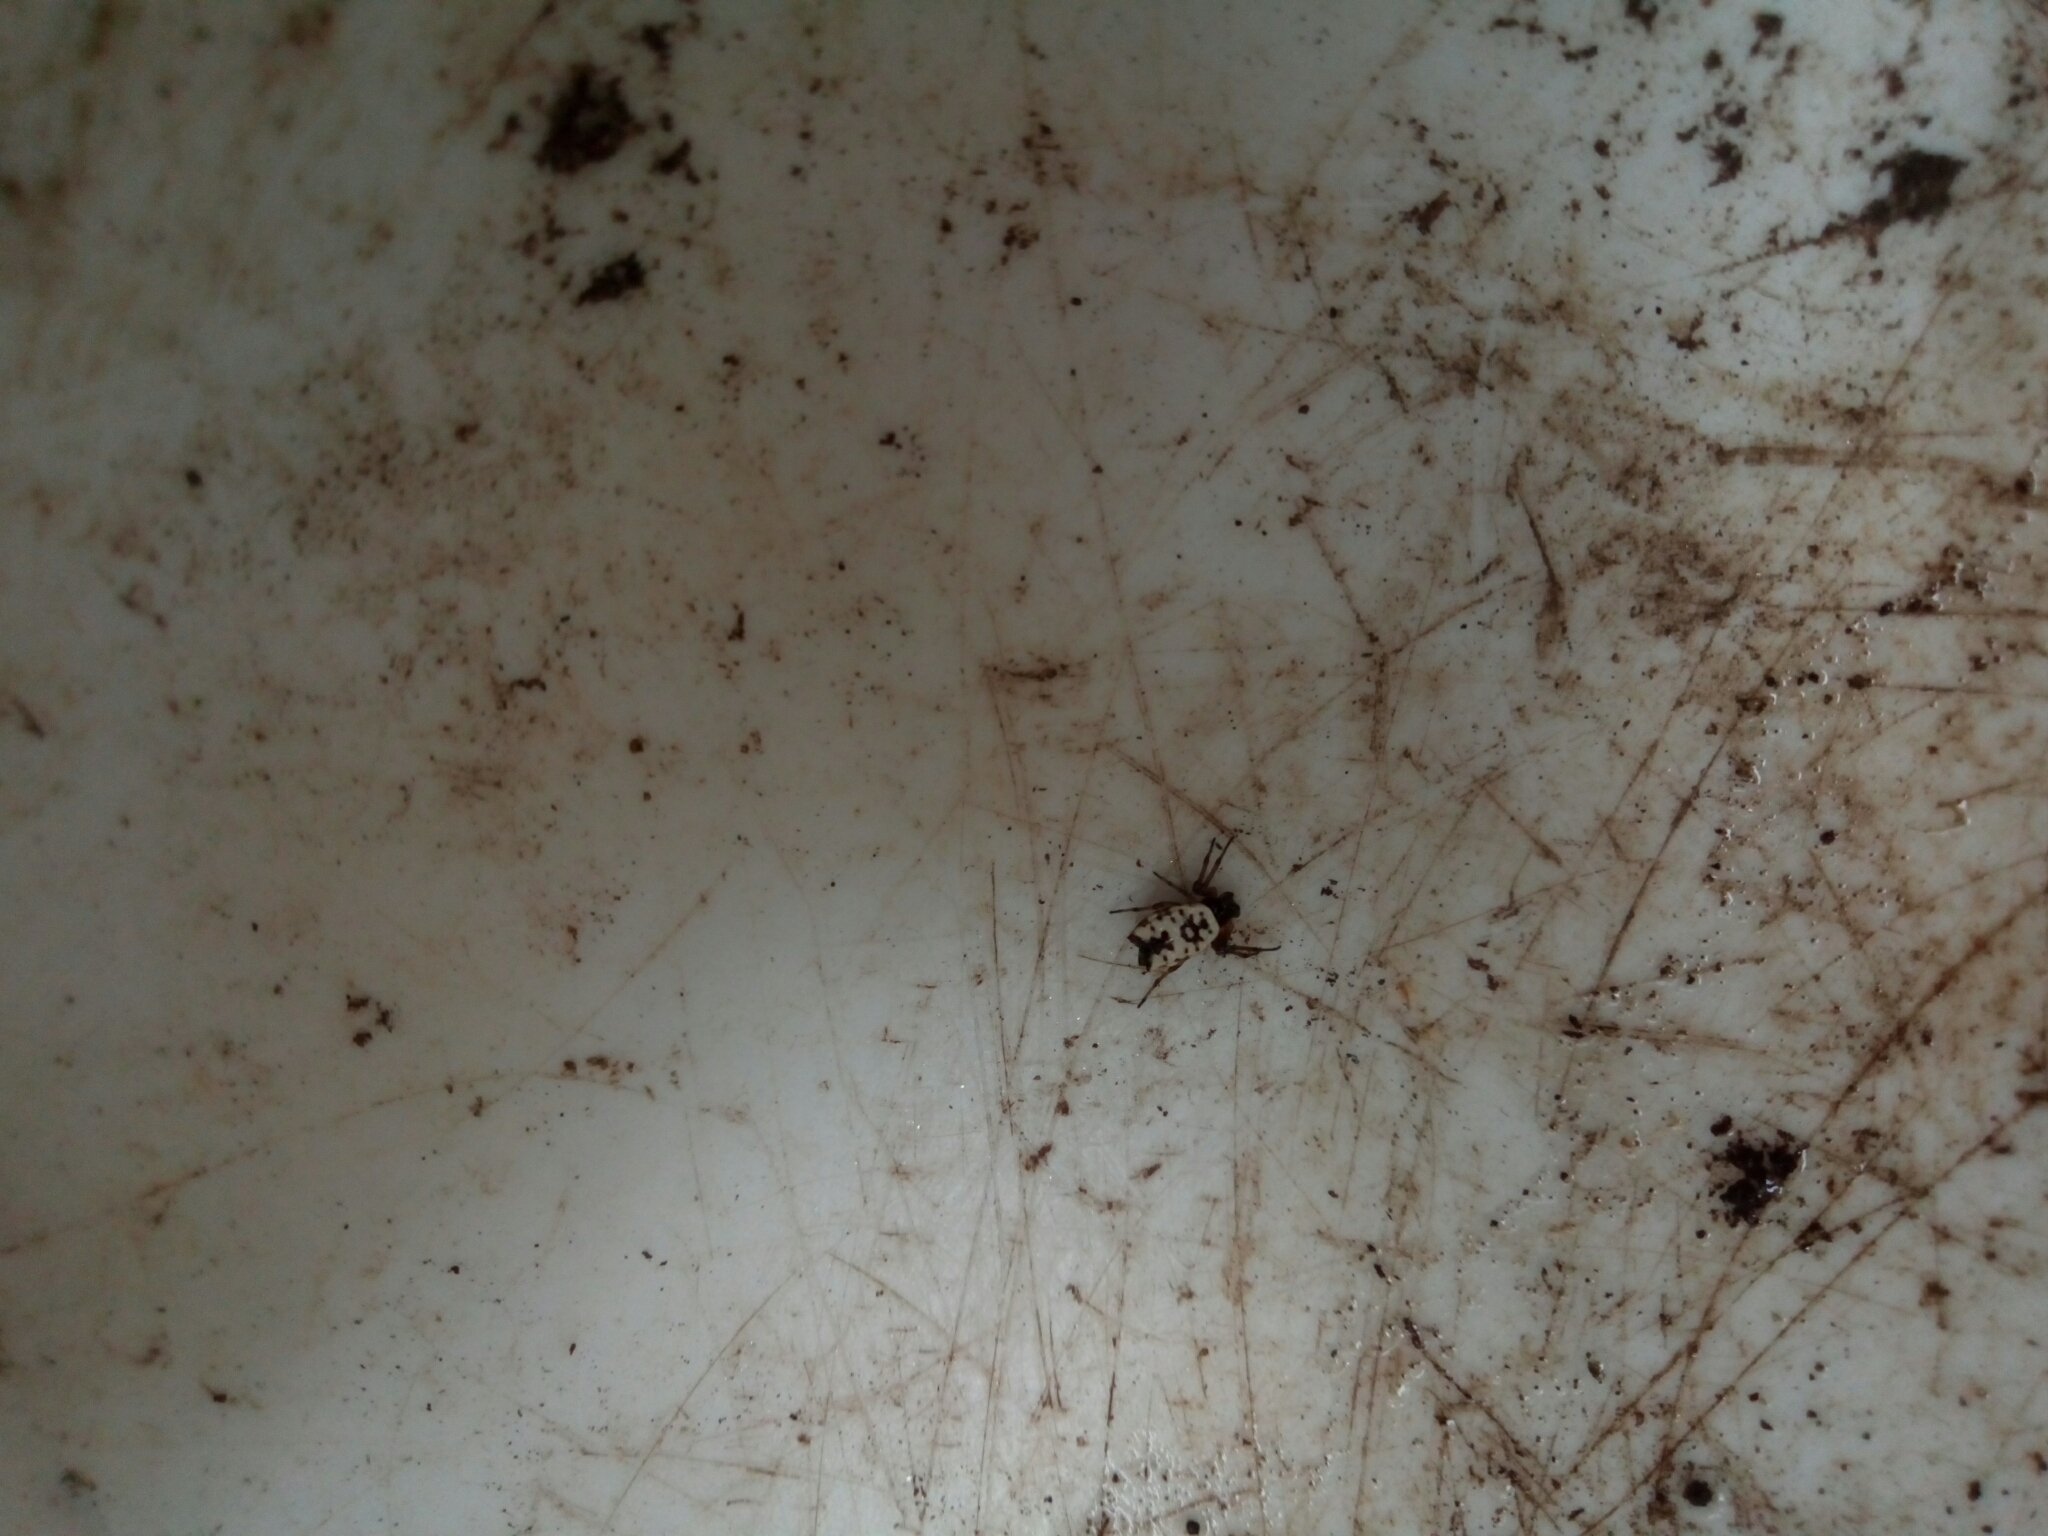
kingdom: Animalia
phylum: Arthropoda
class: Arachnida
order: Araneae
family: Araneidae
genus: Micrathena
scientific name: Micrathena mitrata
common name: Orb weavers
